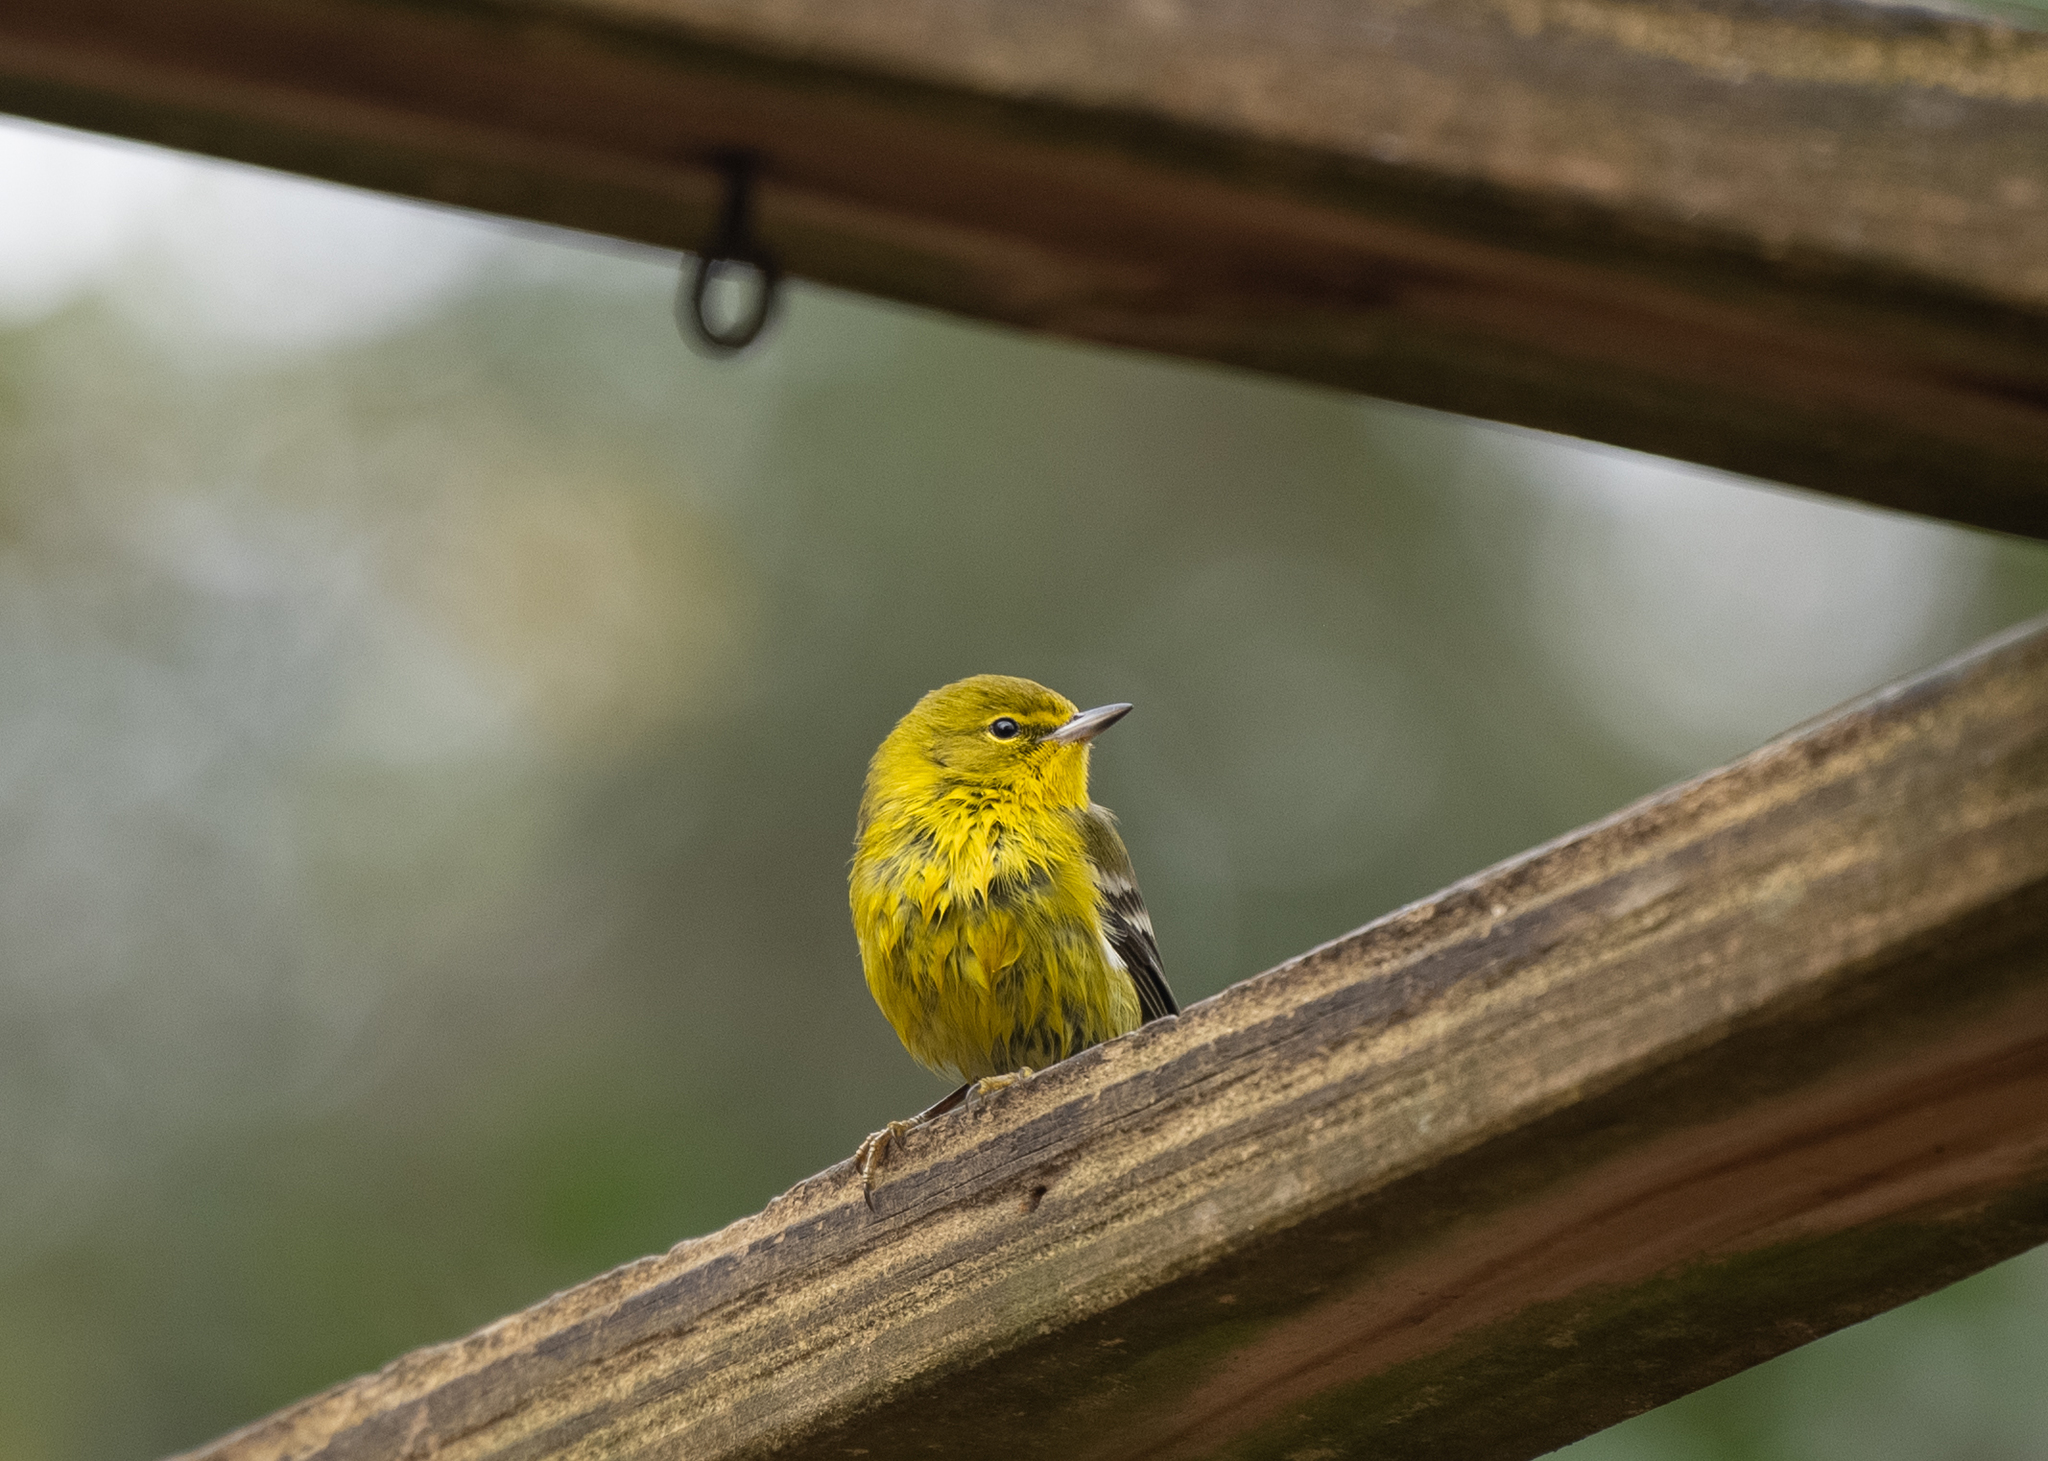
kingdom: Animalia
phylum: Chordata
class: Aves
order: Passeriformes
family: Parulidae
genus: Setophaga
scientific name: Setophaga pinus
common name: Pine warbler
